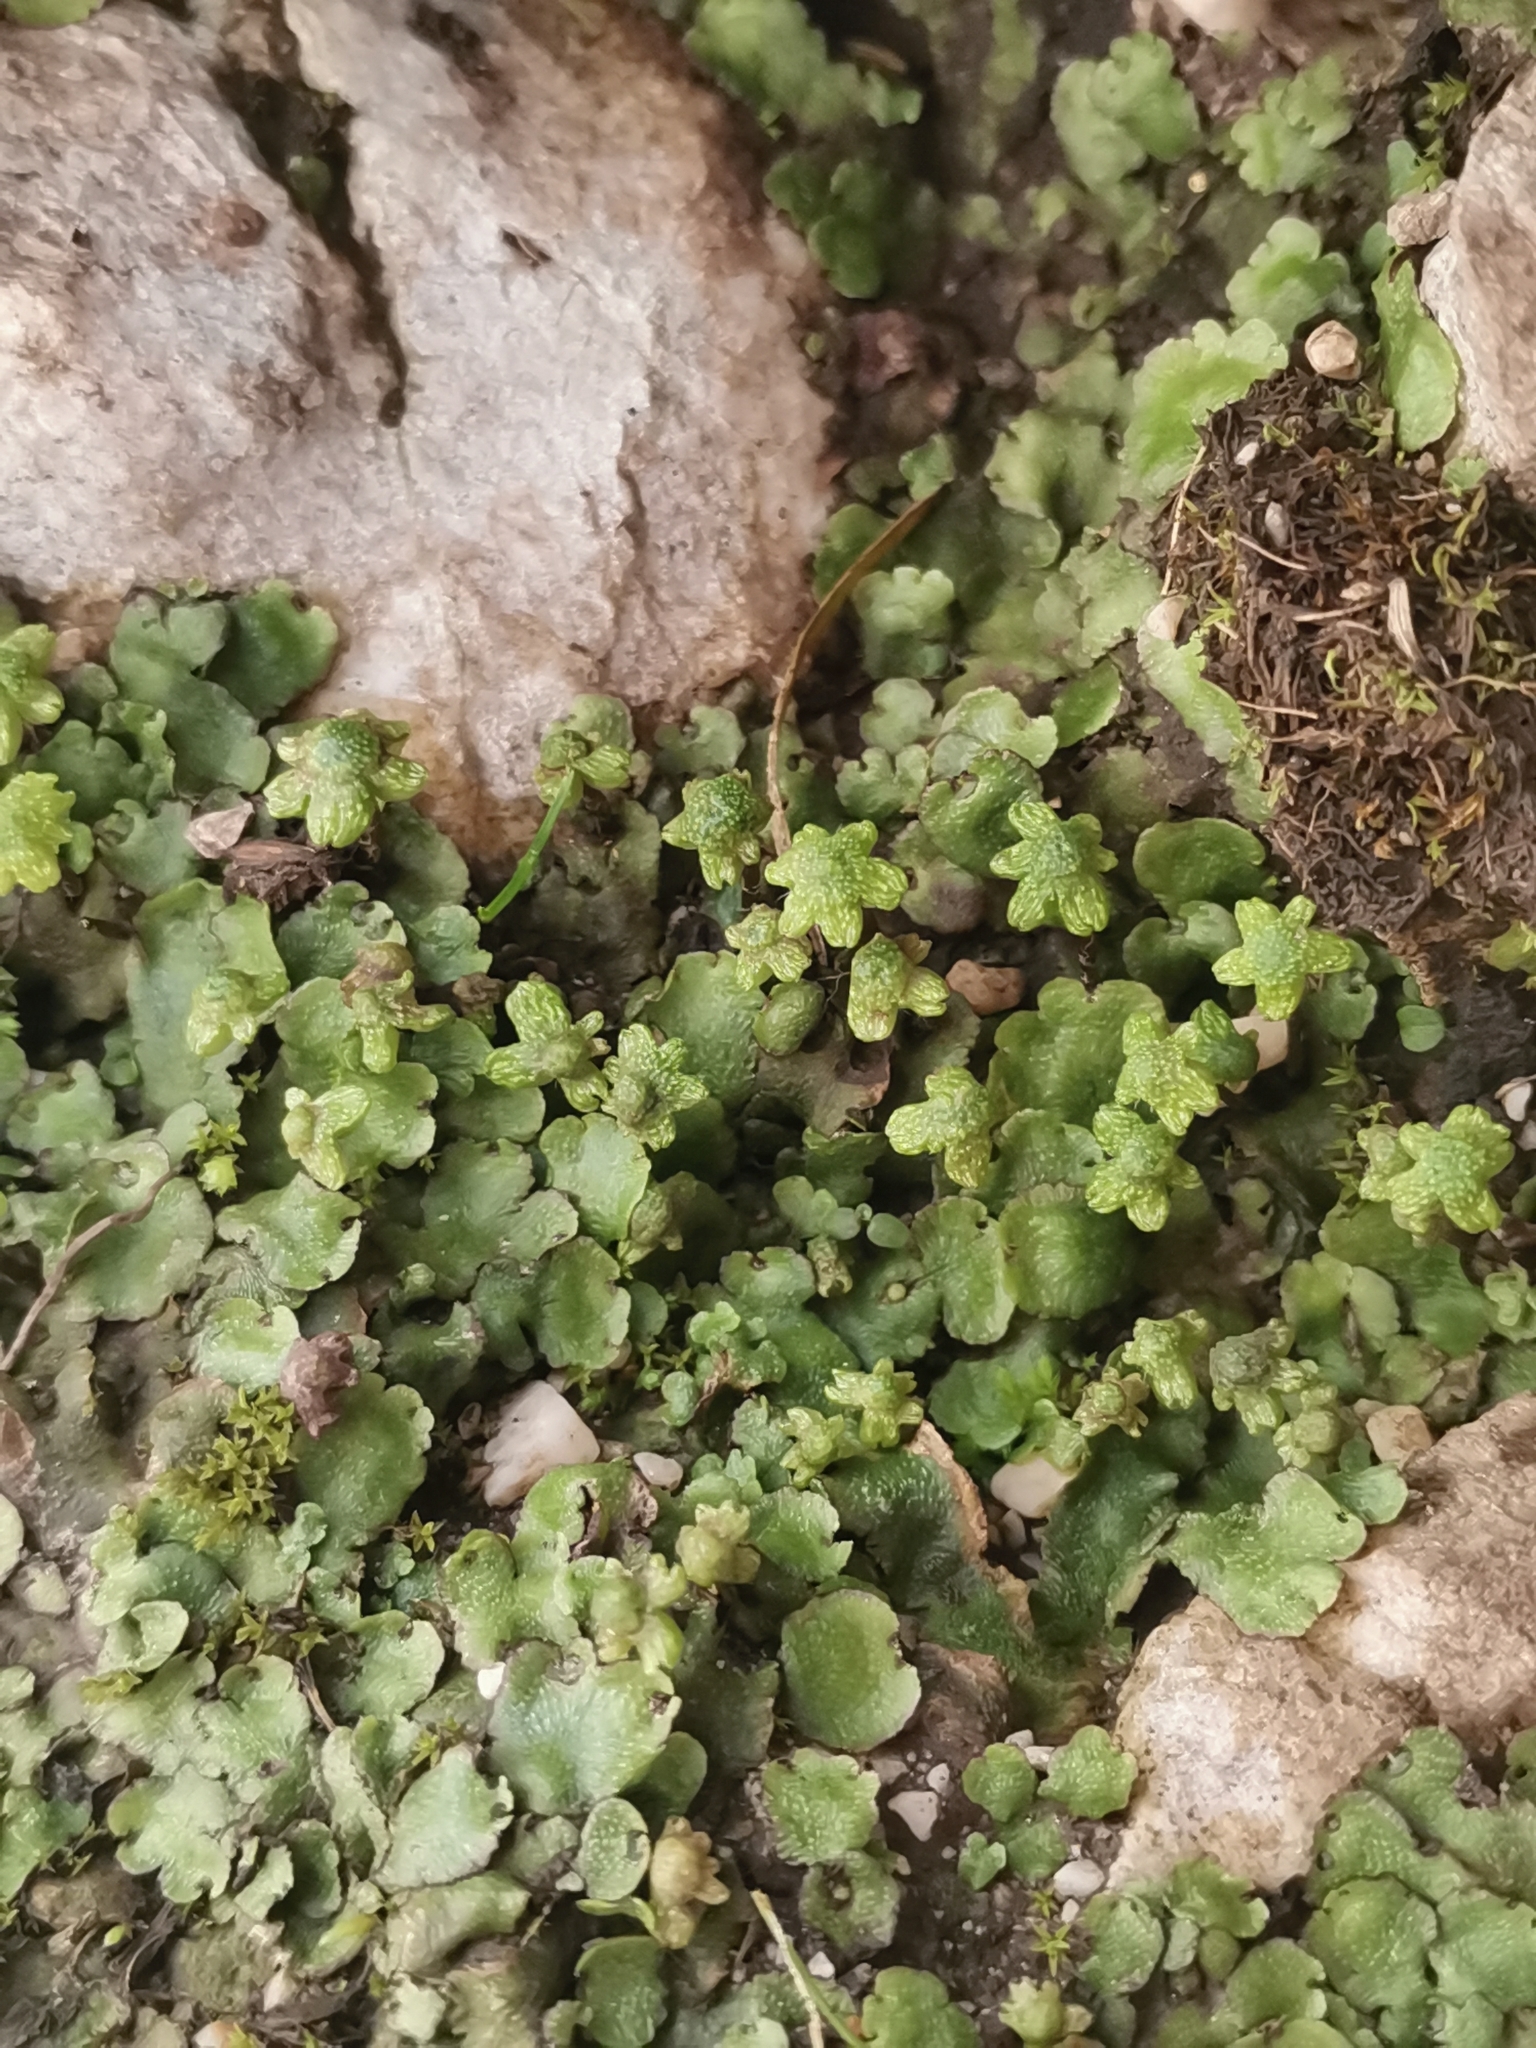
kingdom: Plantae
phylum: Marchantiophyta
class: Marchantiopsida
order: Marchantiales
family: Aytoniaceae
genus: Reboulia
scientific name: Reboulia hemisphaerica
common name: Purple-margined liverwort
